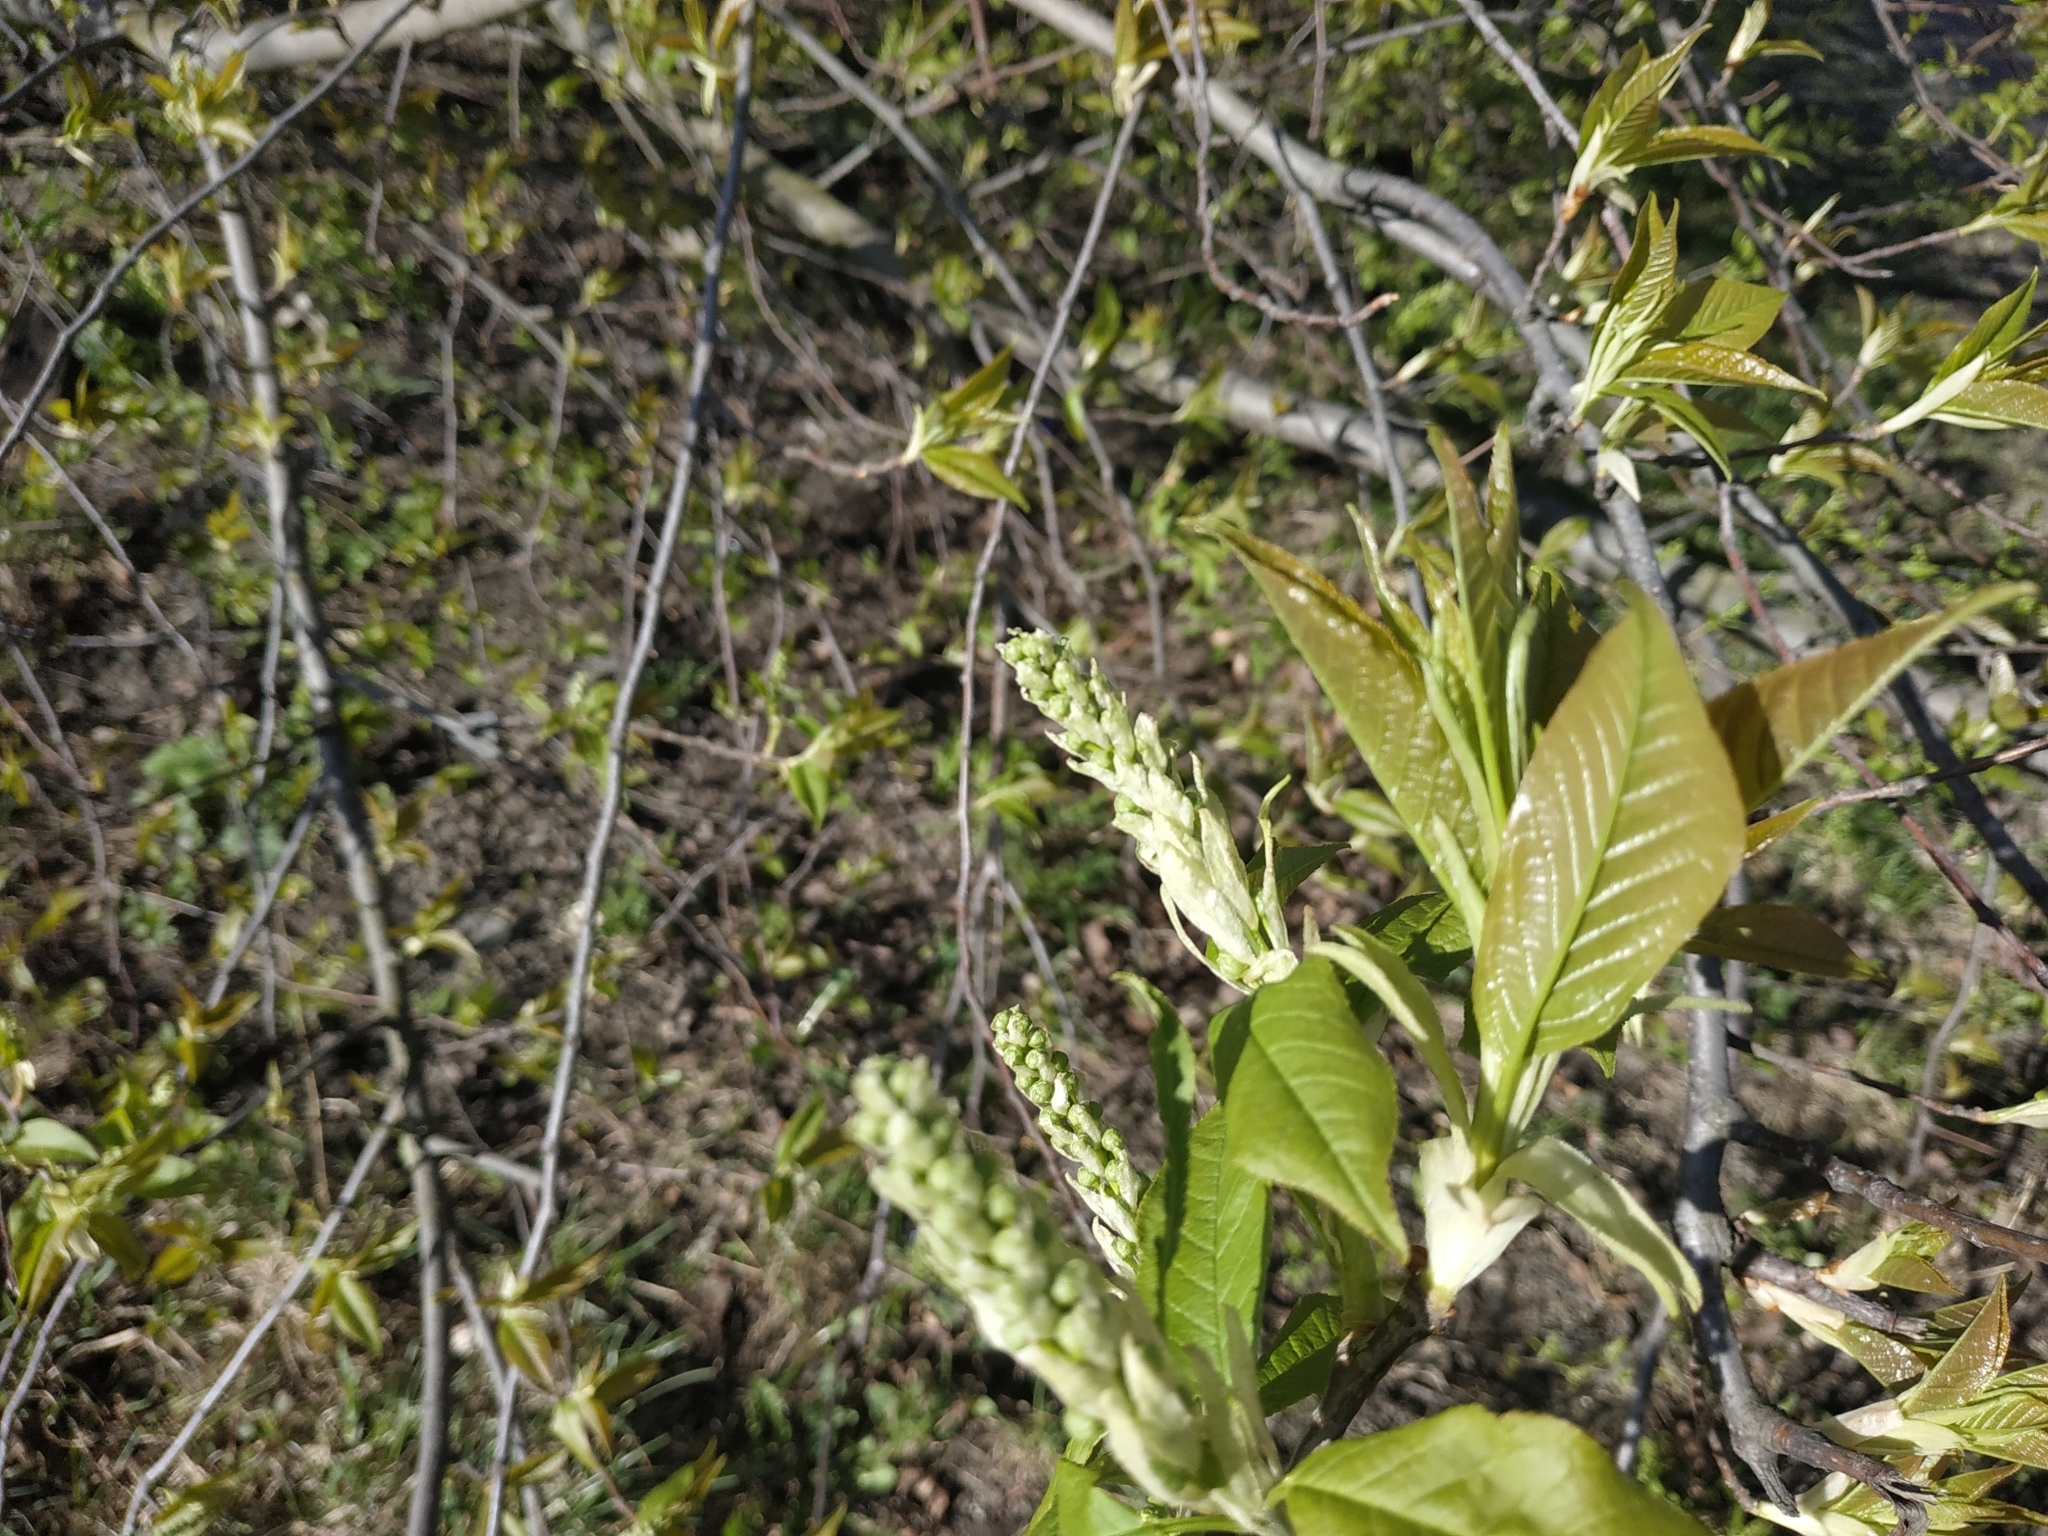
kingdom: Plantae
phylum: Tracheophyta
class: Magnoliopsida
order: Rosales
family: Rosaceae
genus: Prunus
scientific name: Prunus padus
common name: Bird cherry
